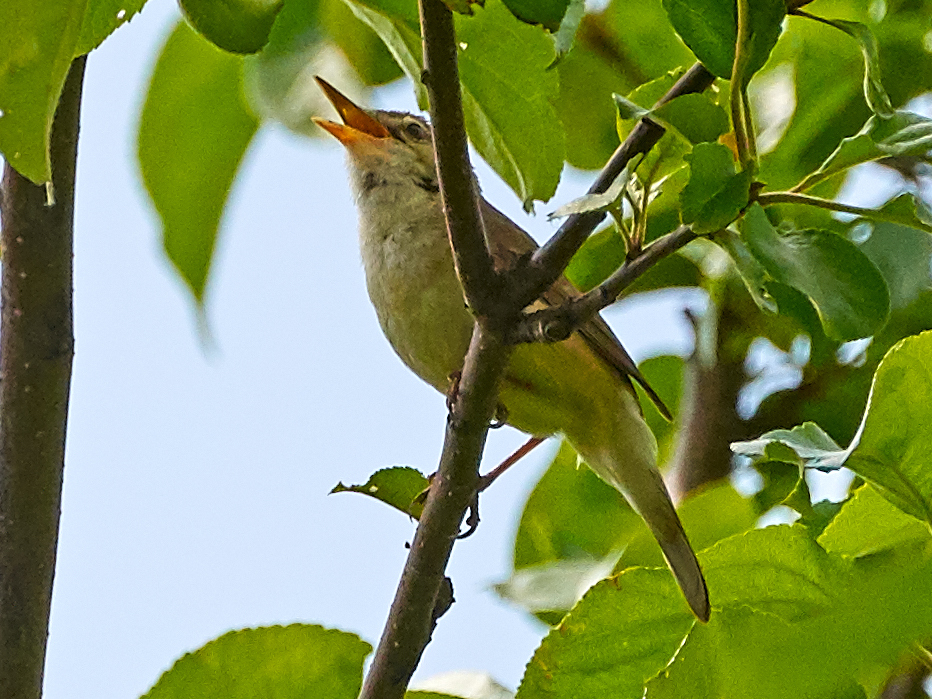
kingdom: Animalia
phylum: Chordata
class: Aves
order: Passeriformes
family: Acrocephalidae
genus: Acrocephalus
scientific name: Acrocephalus dumetorum
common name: Blyth's reed warbler
